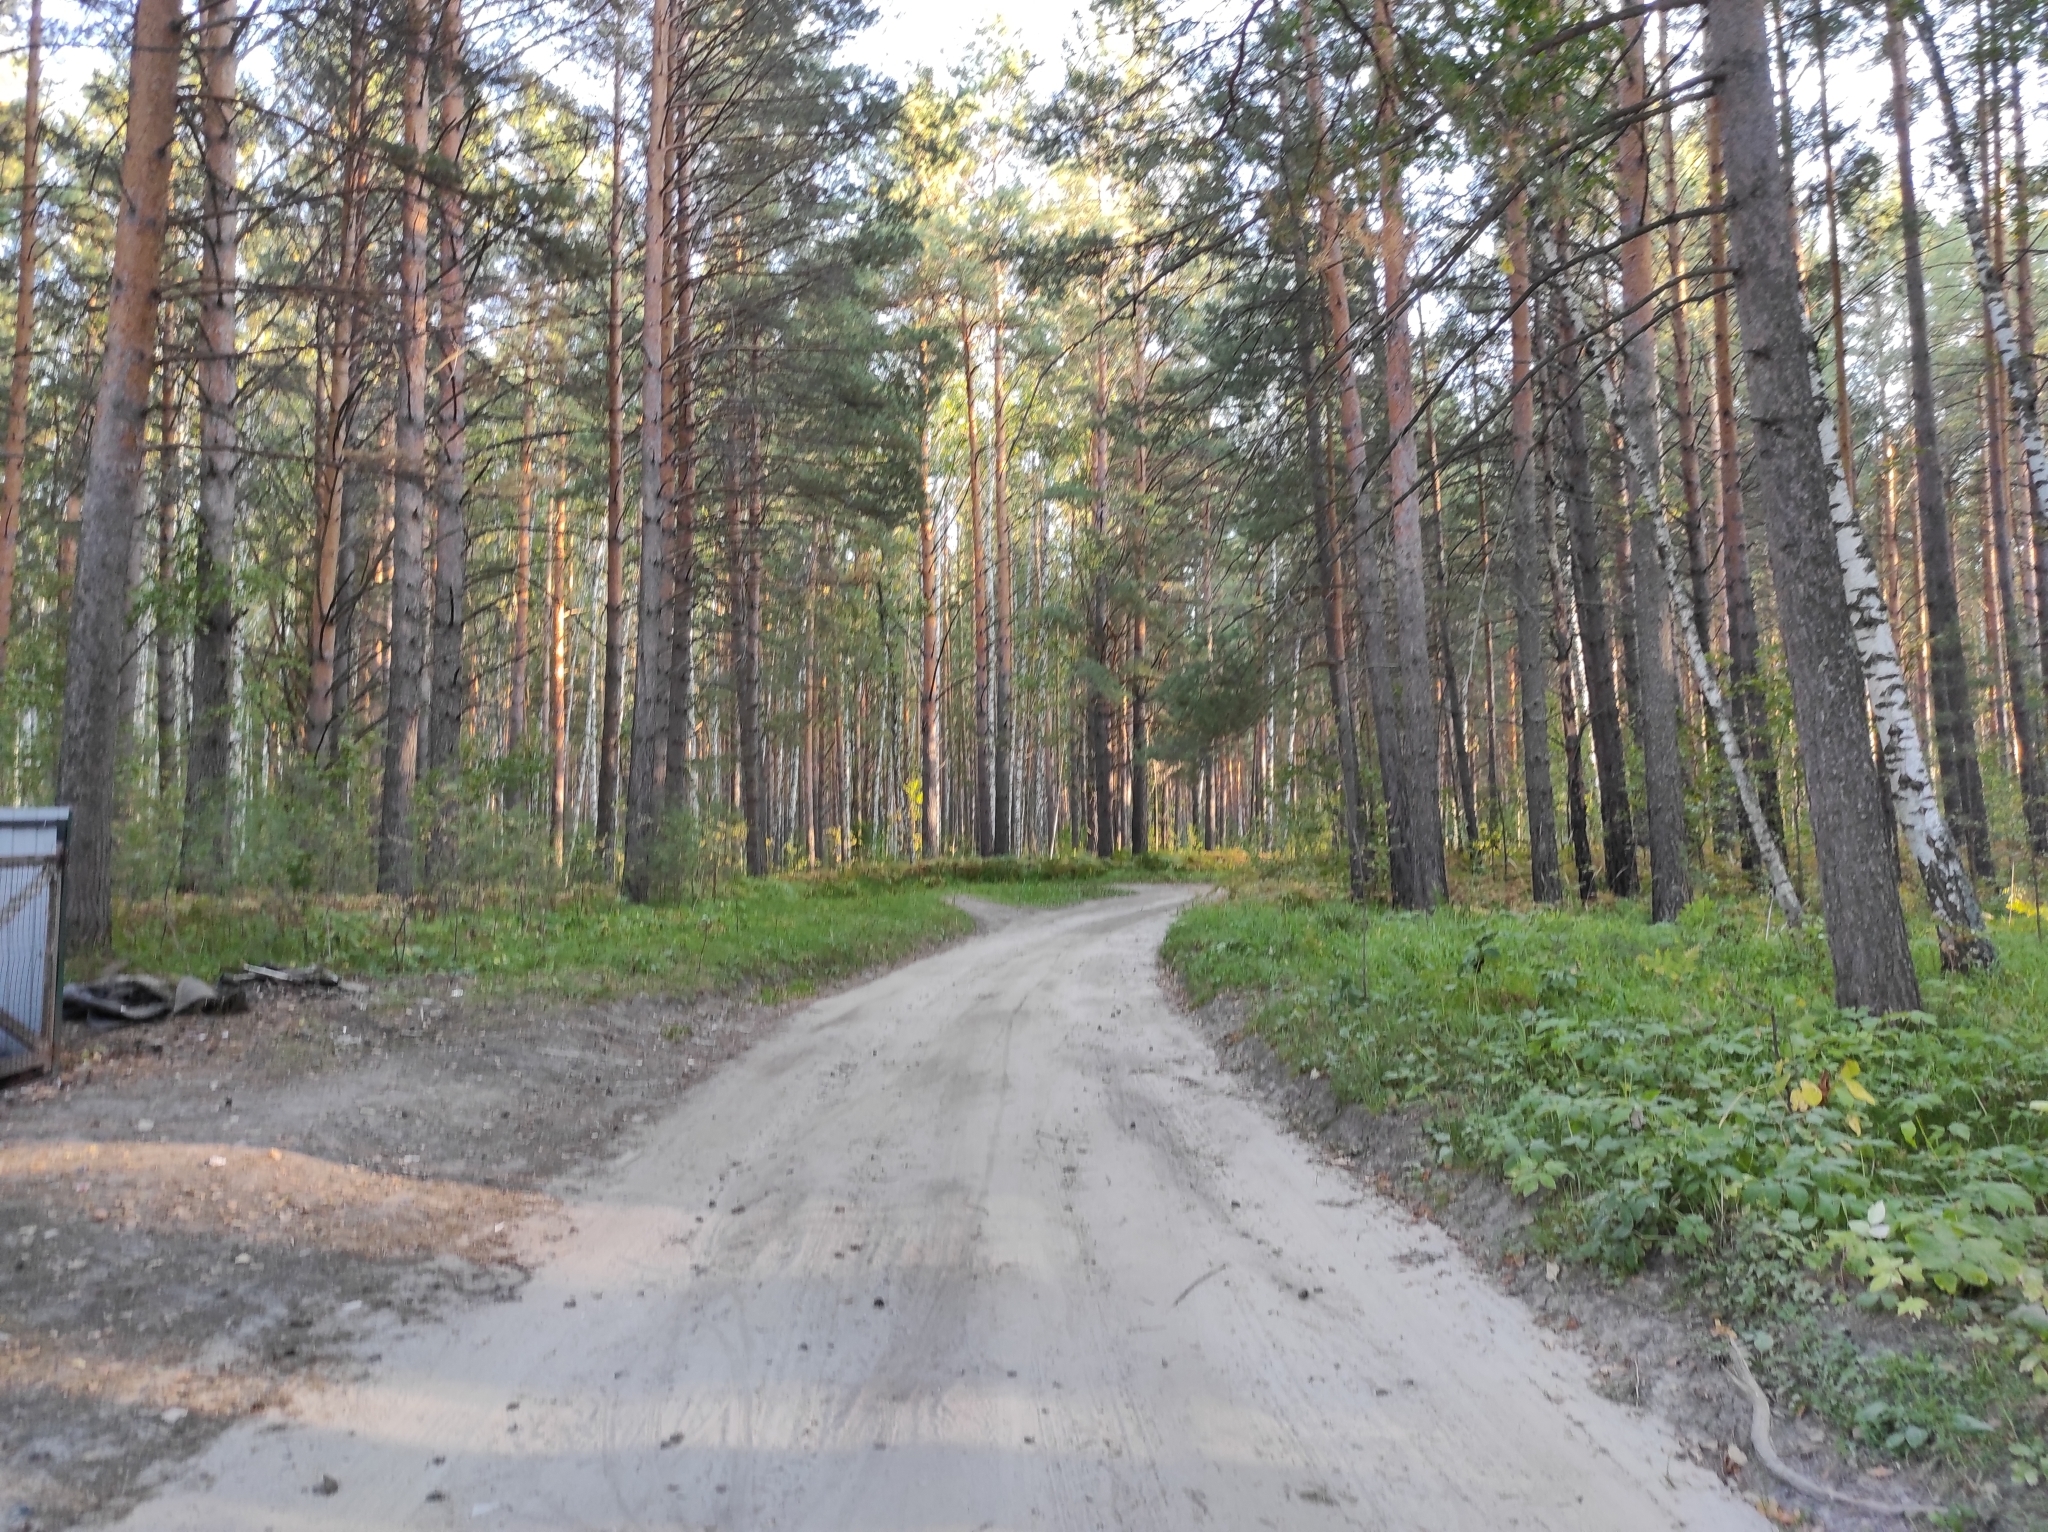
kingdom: Plantae
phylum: Tracheophyta
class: Pinopsida
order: Pinales
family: Pinaceae
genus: Pinus
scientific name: Pinus sylvestris
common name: Scots pine
